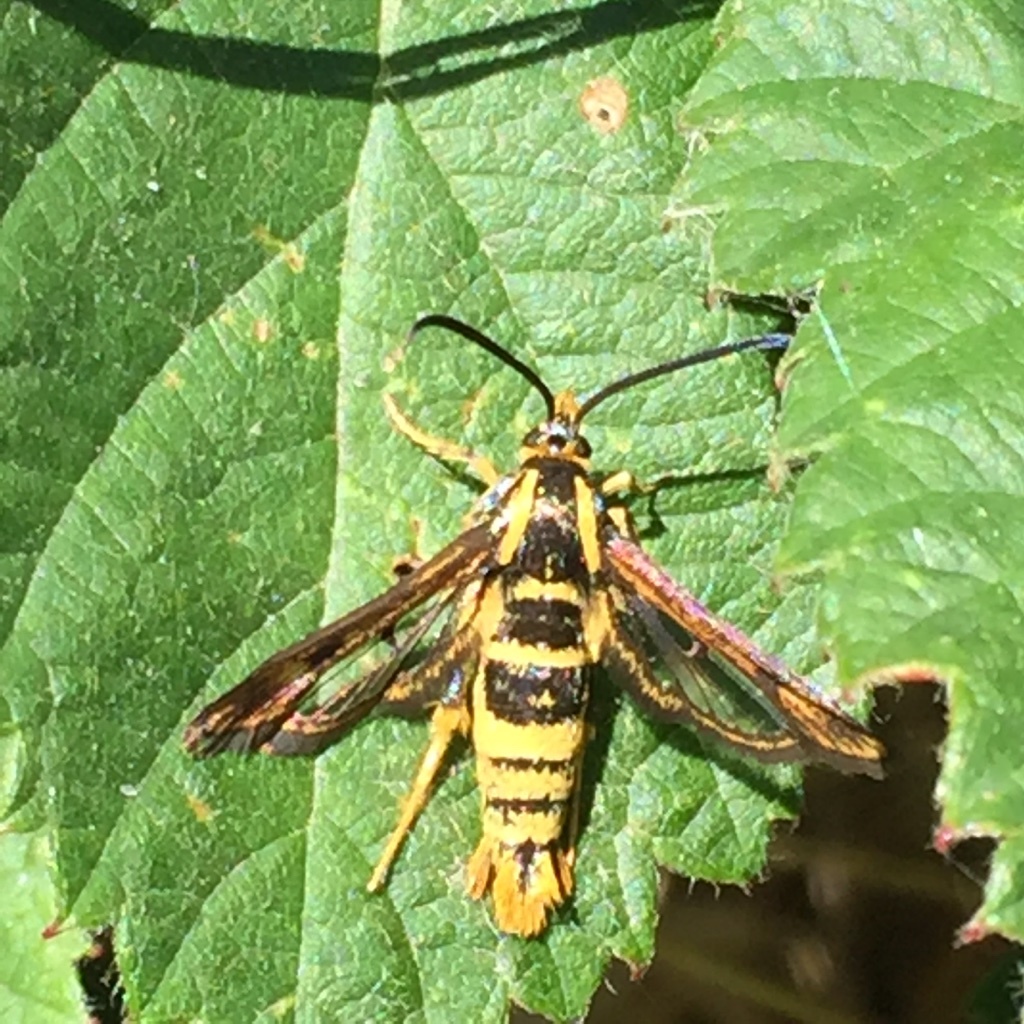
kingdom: Animalia
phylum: Arthropoda
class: Insecta
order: Lepidoptera
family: Sesiidae
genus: Synanthedon
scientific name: Synanthedon bibionipennis
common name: Strawberry crown moth
